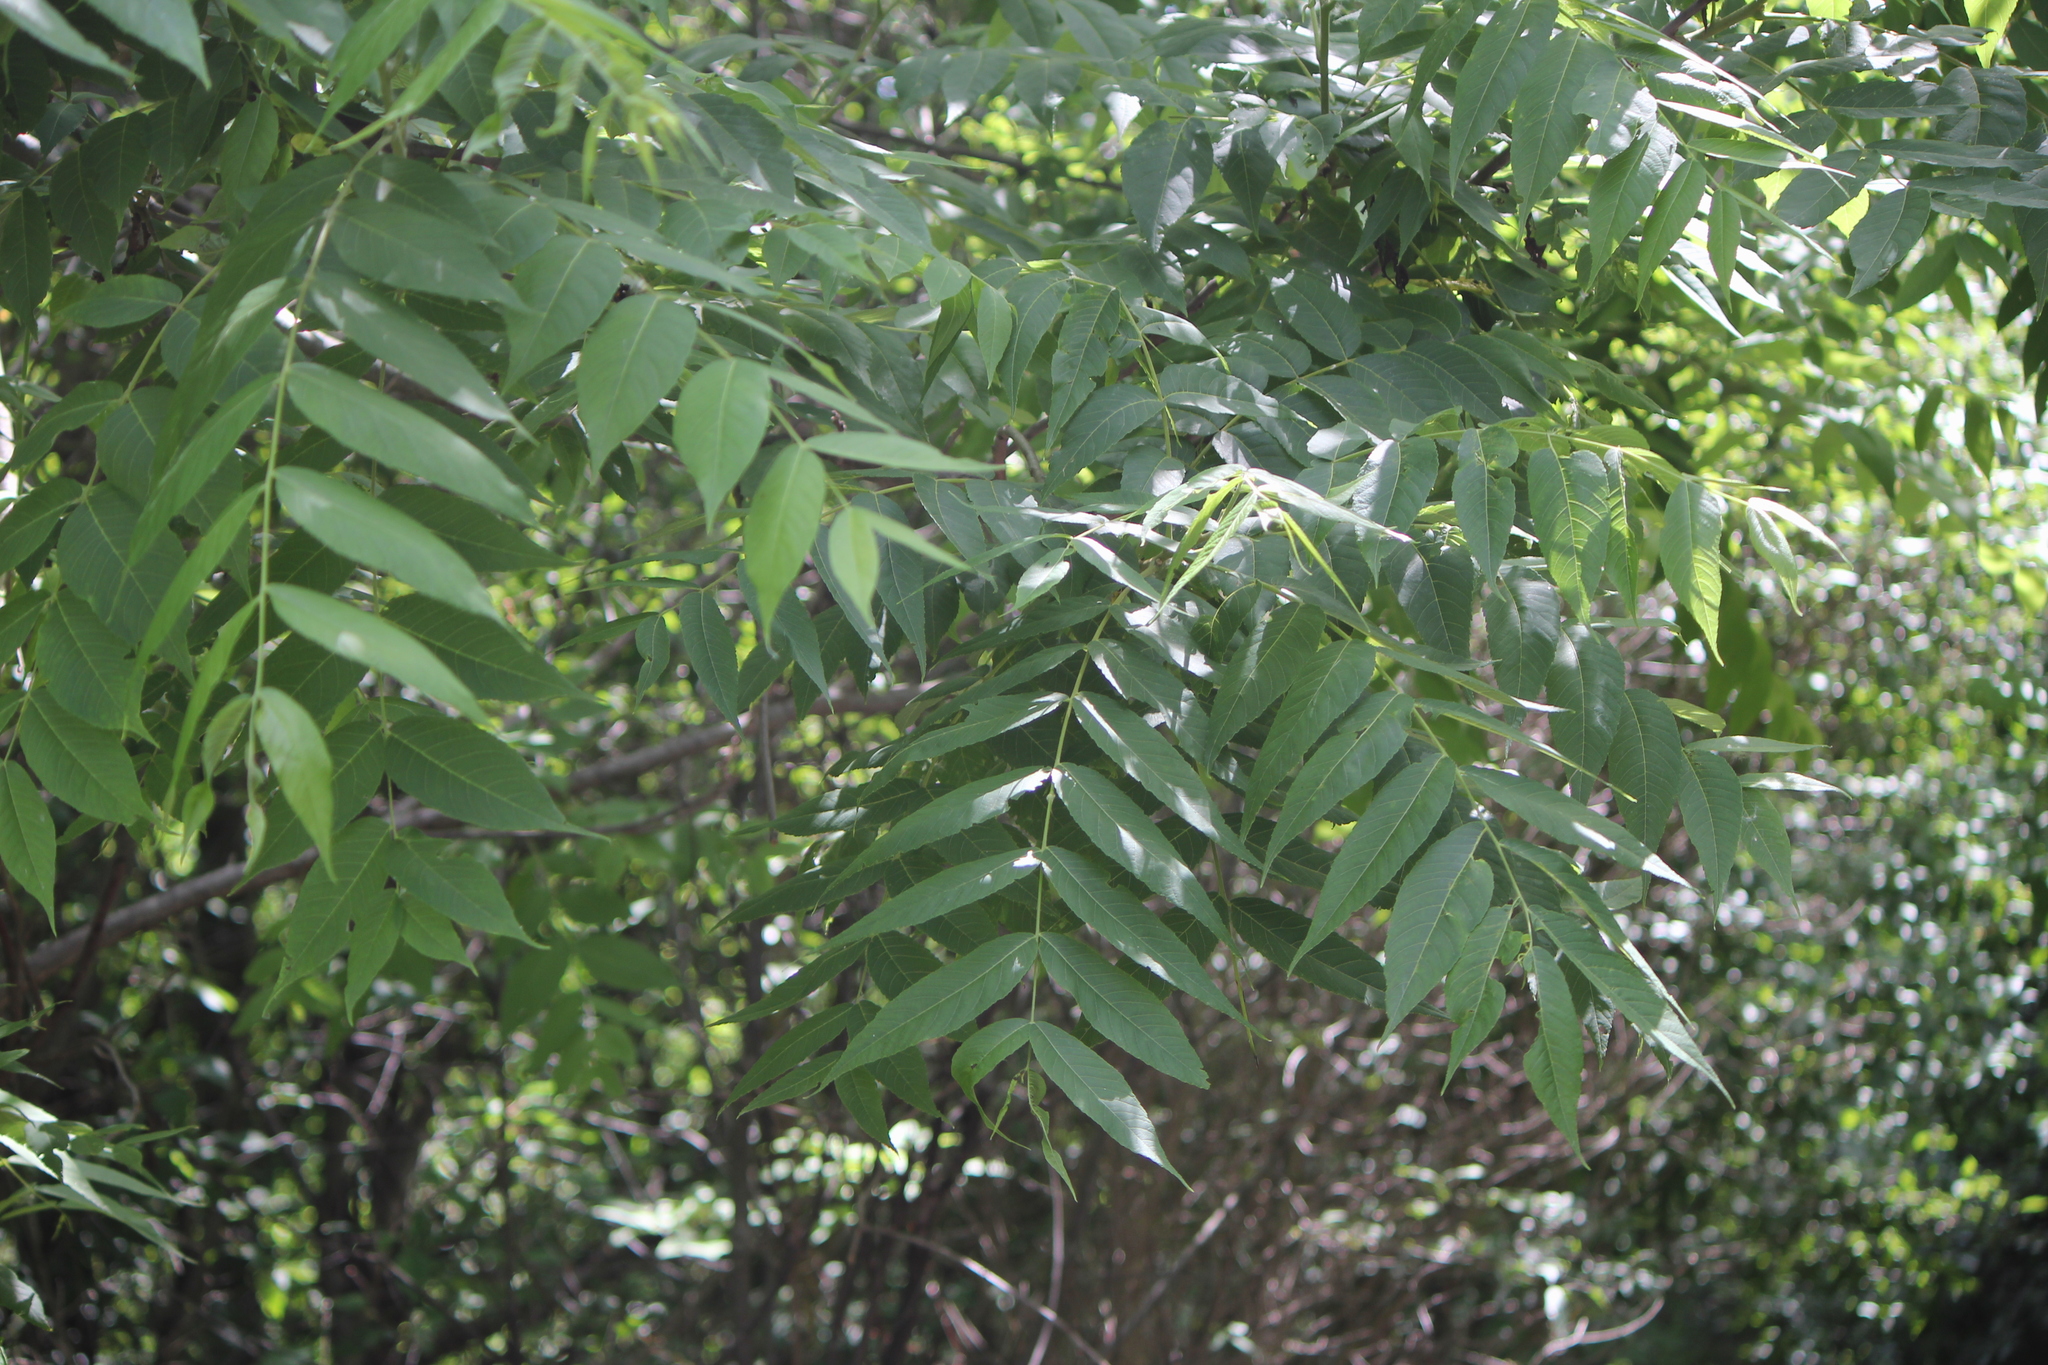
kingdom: Plantae
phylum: Tracheophyta
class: Magnoliopsida
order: Fagales
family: Juglandaceae
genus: Juglans
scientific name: Juglans nigra
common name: Black walnut
